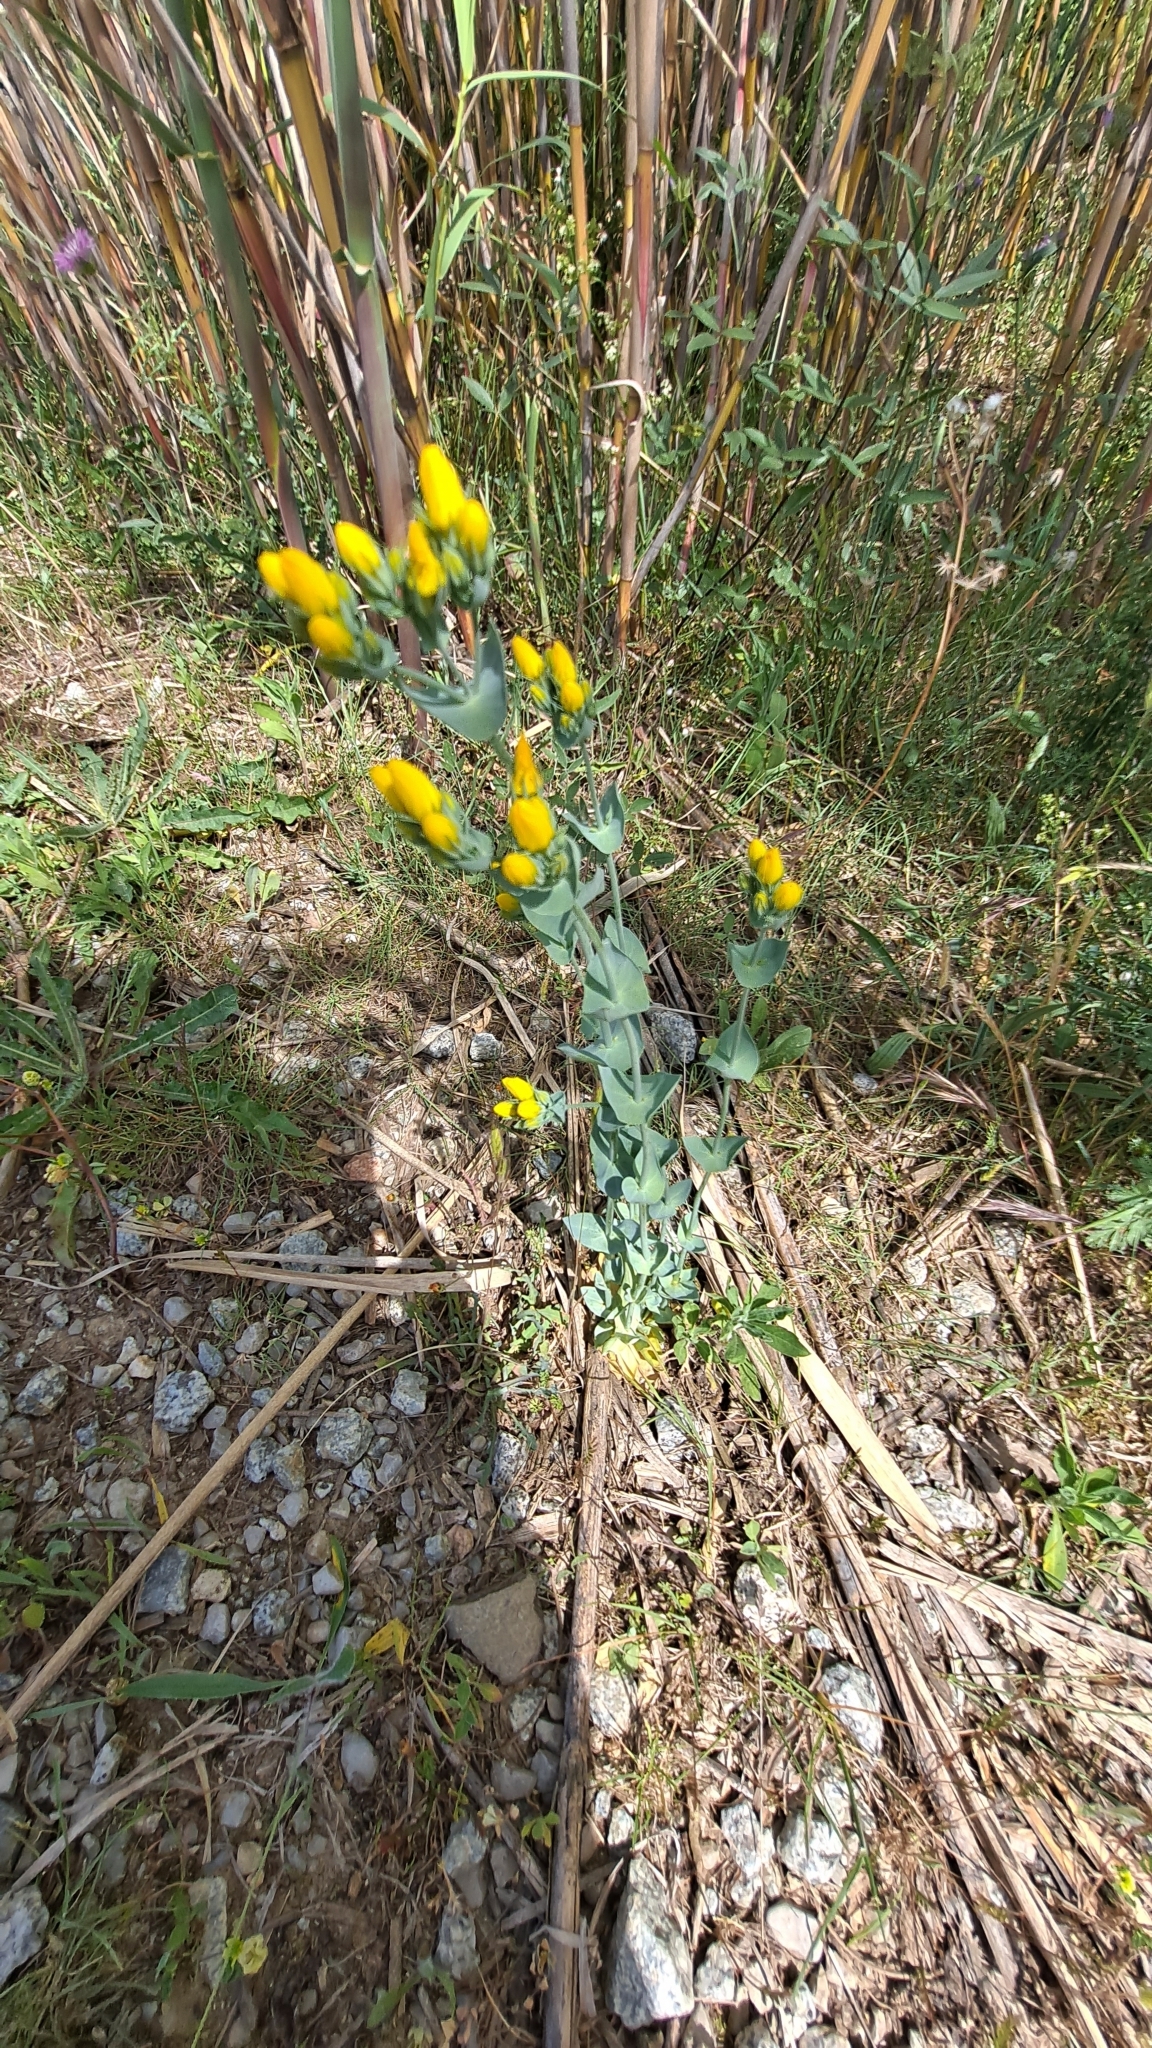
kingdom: Plantae
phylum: Tracheophyta
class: Magnoliopsida
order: Gentianales
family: Gentianaceae
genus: Blackstonia
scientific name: Blackstonia perfoliata
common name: Yellow-wort
